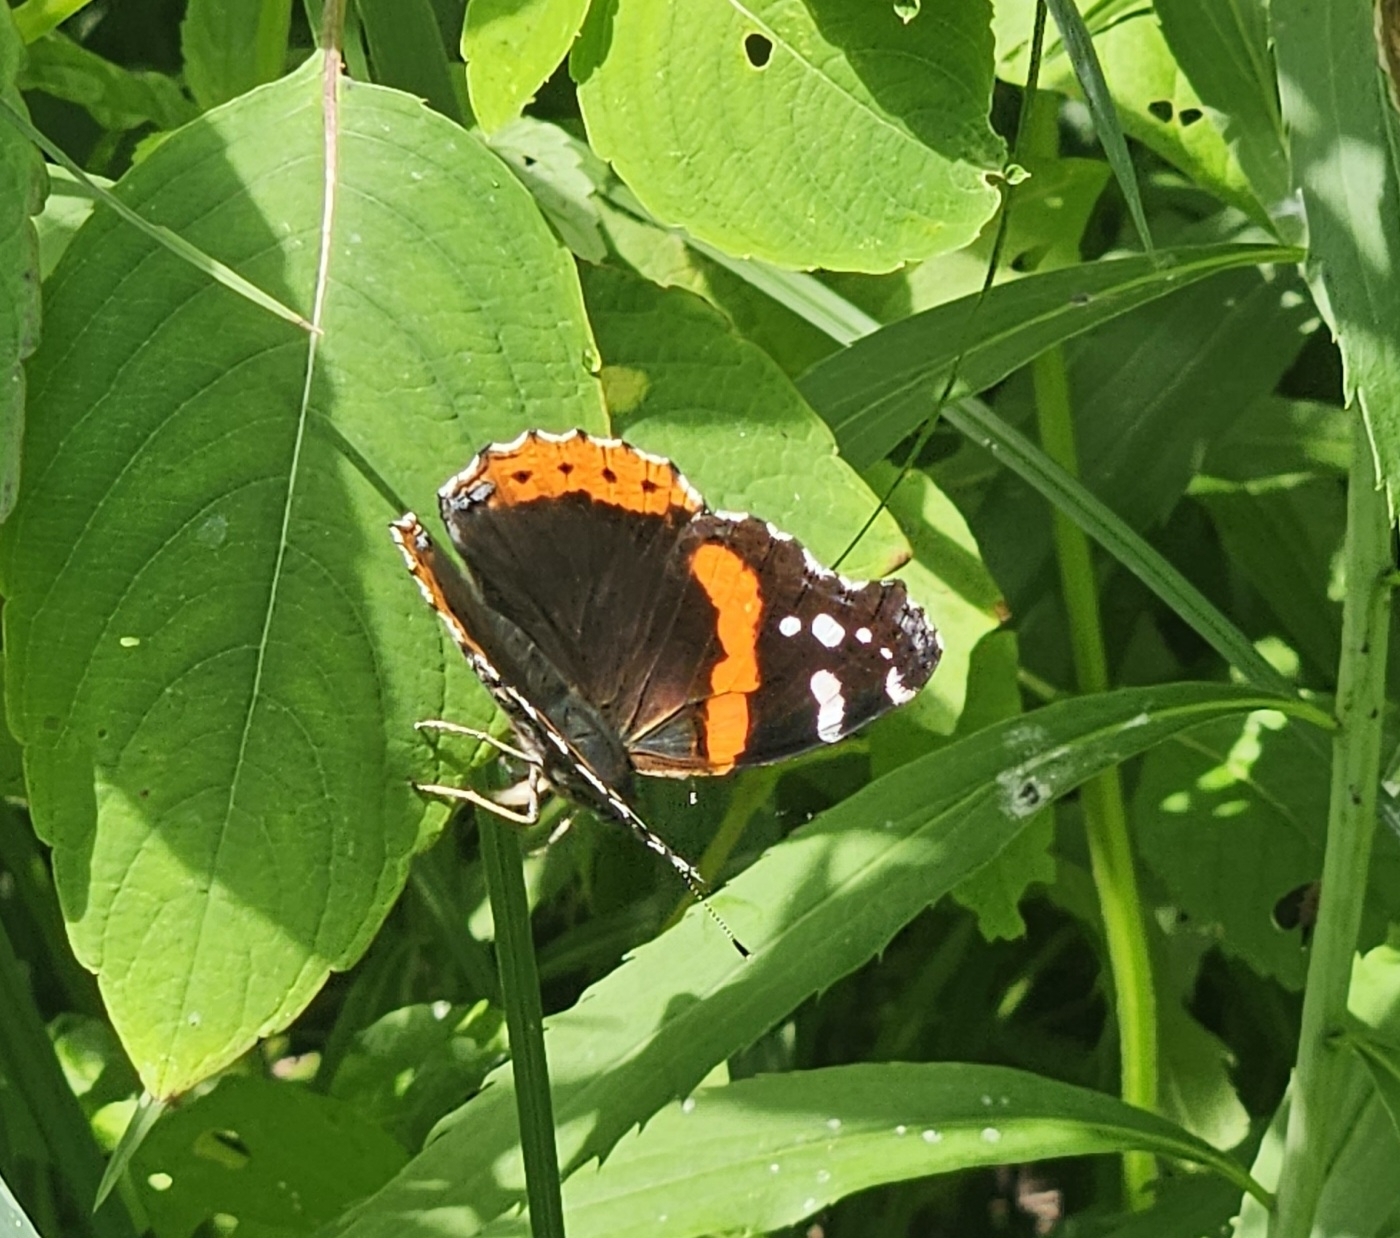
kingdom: Animalia
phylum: Arthropoda
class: Insecta
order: Lepidoptera
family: Nymphalidae
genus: Vanessa
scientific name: Vanessa atalanta
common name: Red admiral
